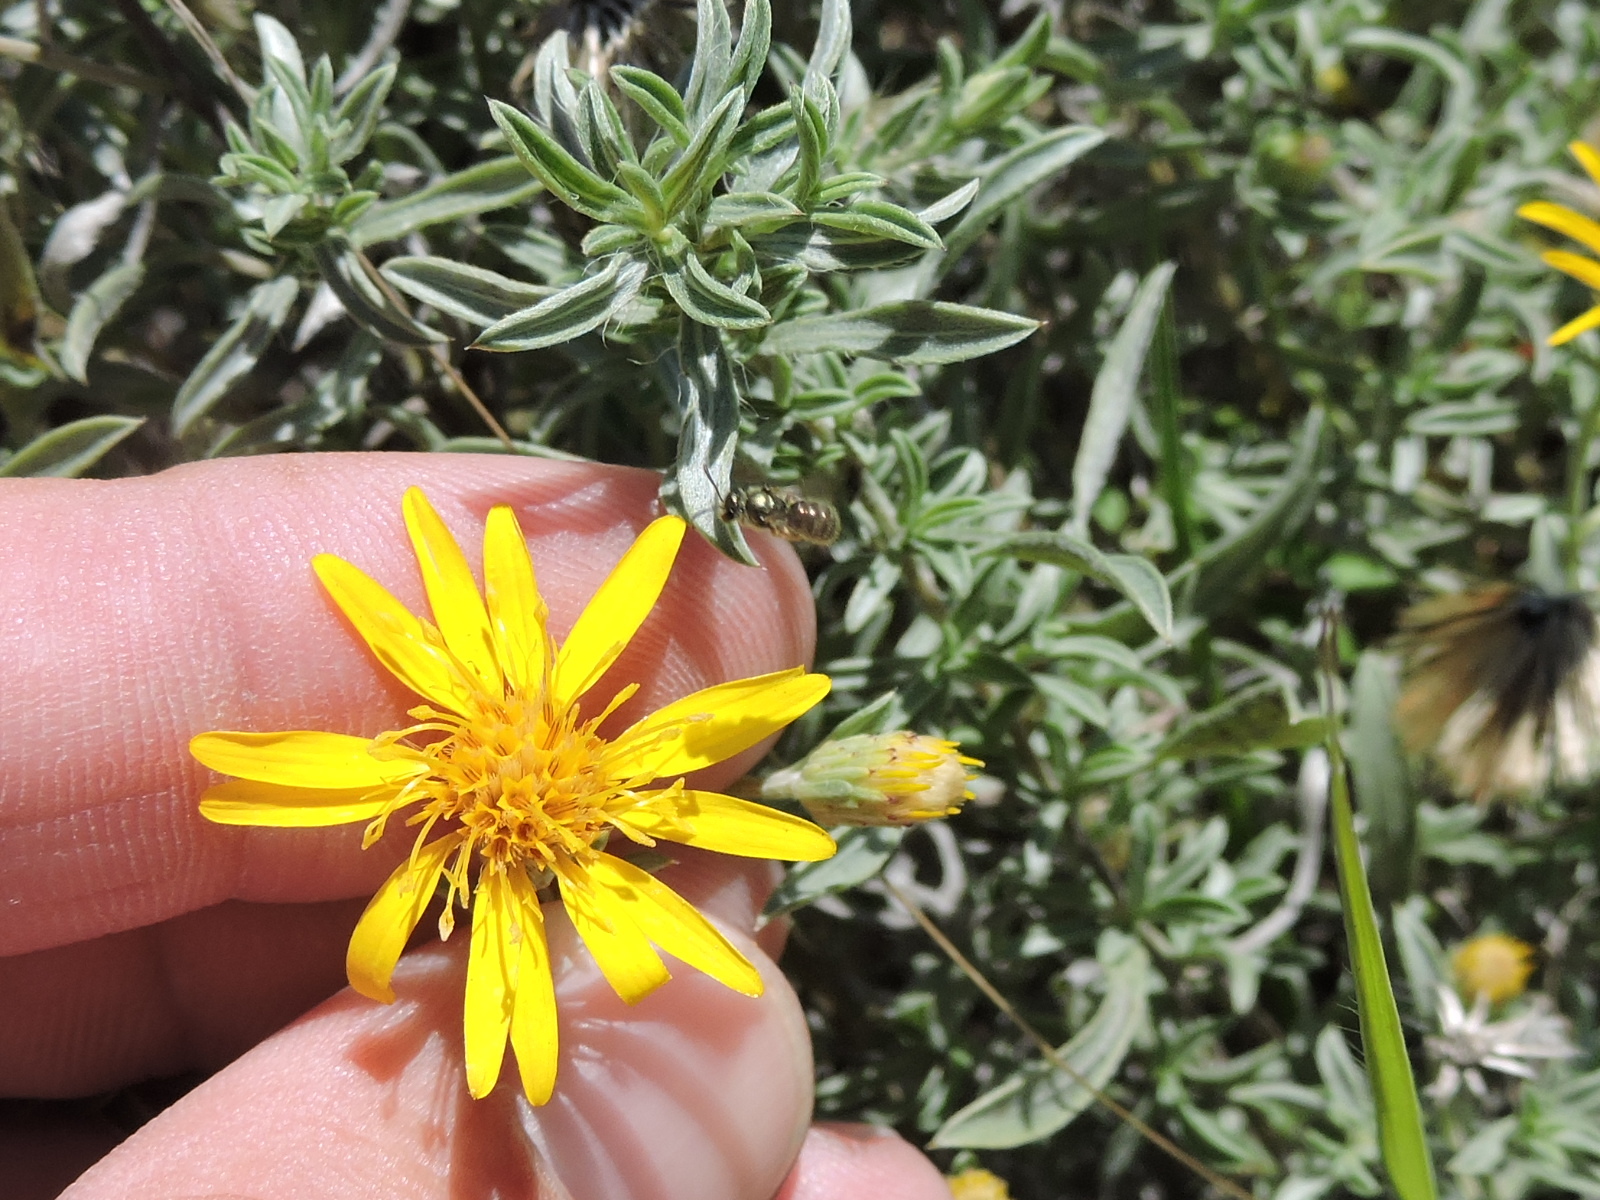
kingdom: Plantae
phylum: Tracheophyta
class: Magnoliopsida
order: Asterales
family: Asteraceae
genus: Heterotheca
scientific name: Heterotheca canescens
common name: Hoary golden-aster
